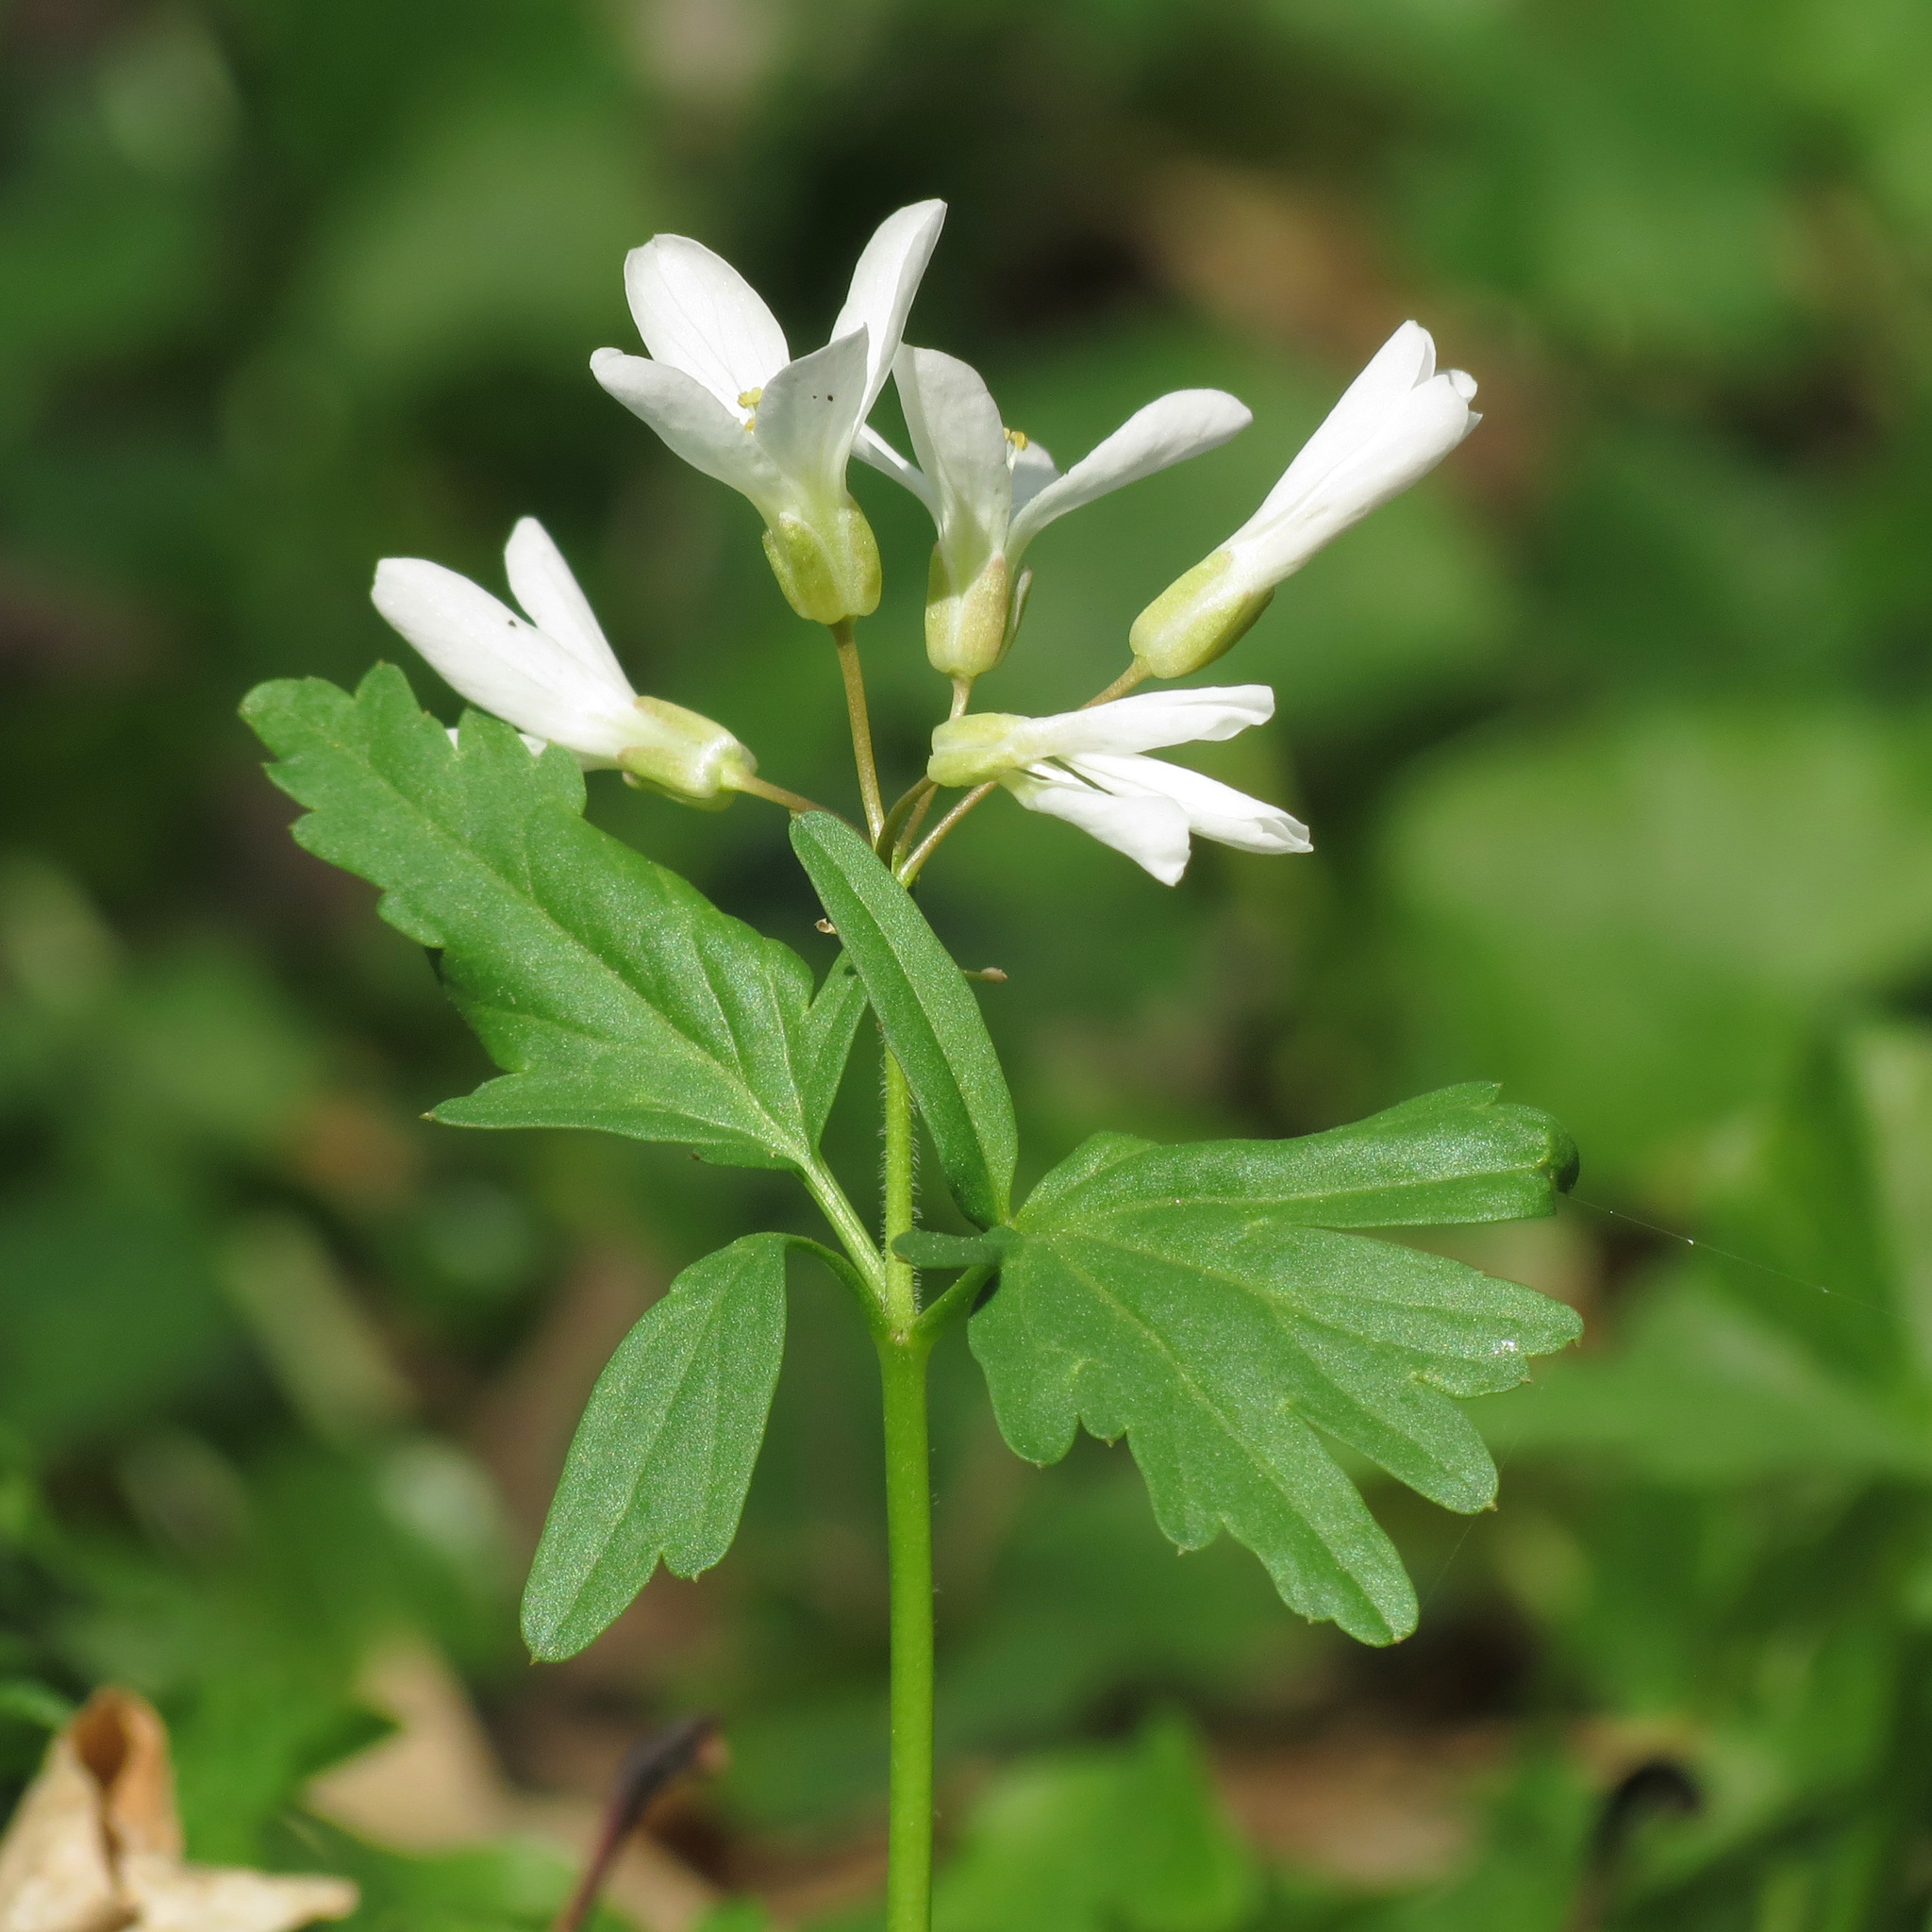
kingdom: Plantae
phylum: Tracheophyta
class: Magnoliopsida
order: Brassicales
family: Brassicaceae
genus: Cardamine
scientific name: Cardamine concatenata
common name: Cut-leaf toothcup
